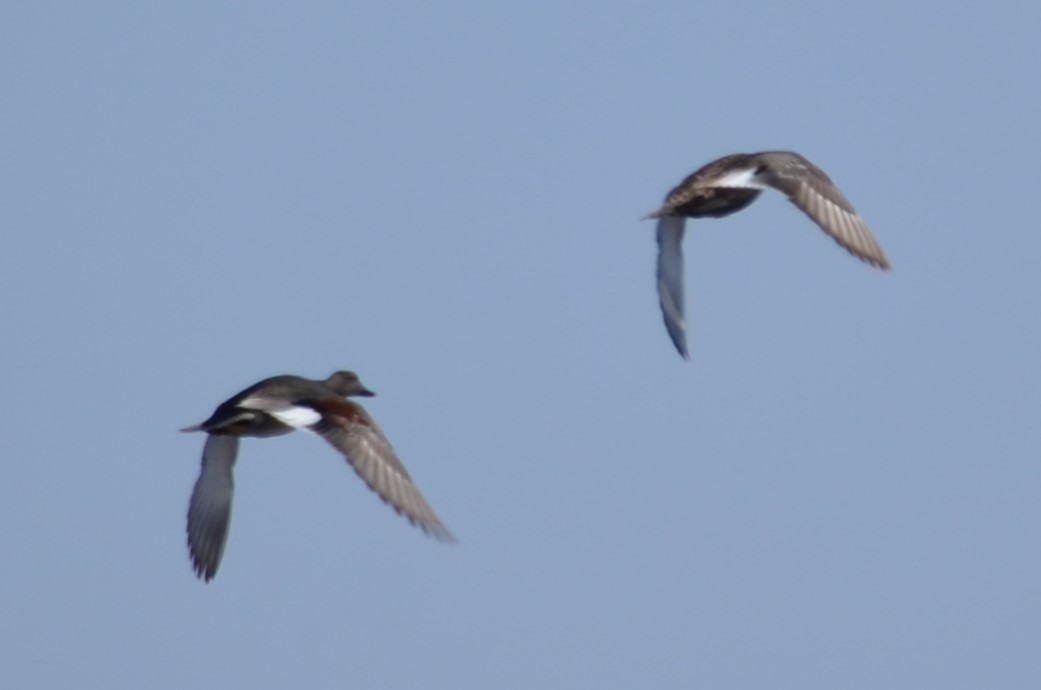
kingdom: Animalia
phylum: Chordata
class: Aves
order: Anseriformes
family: Anatidae
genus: Mareca
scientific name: Mareca strepera
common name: Gadwall
